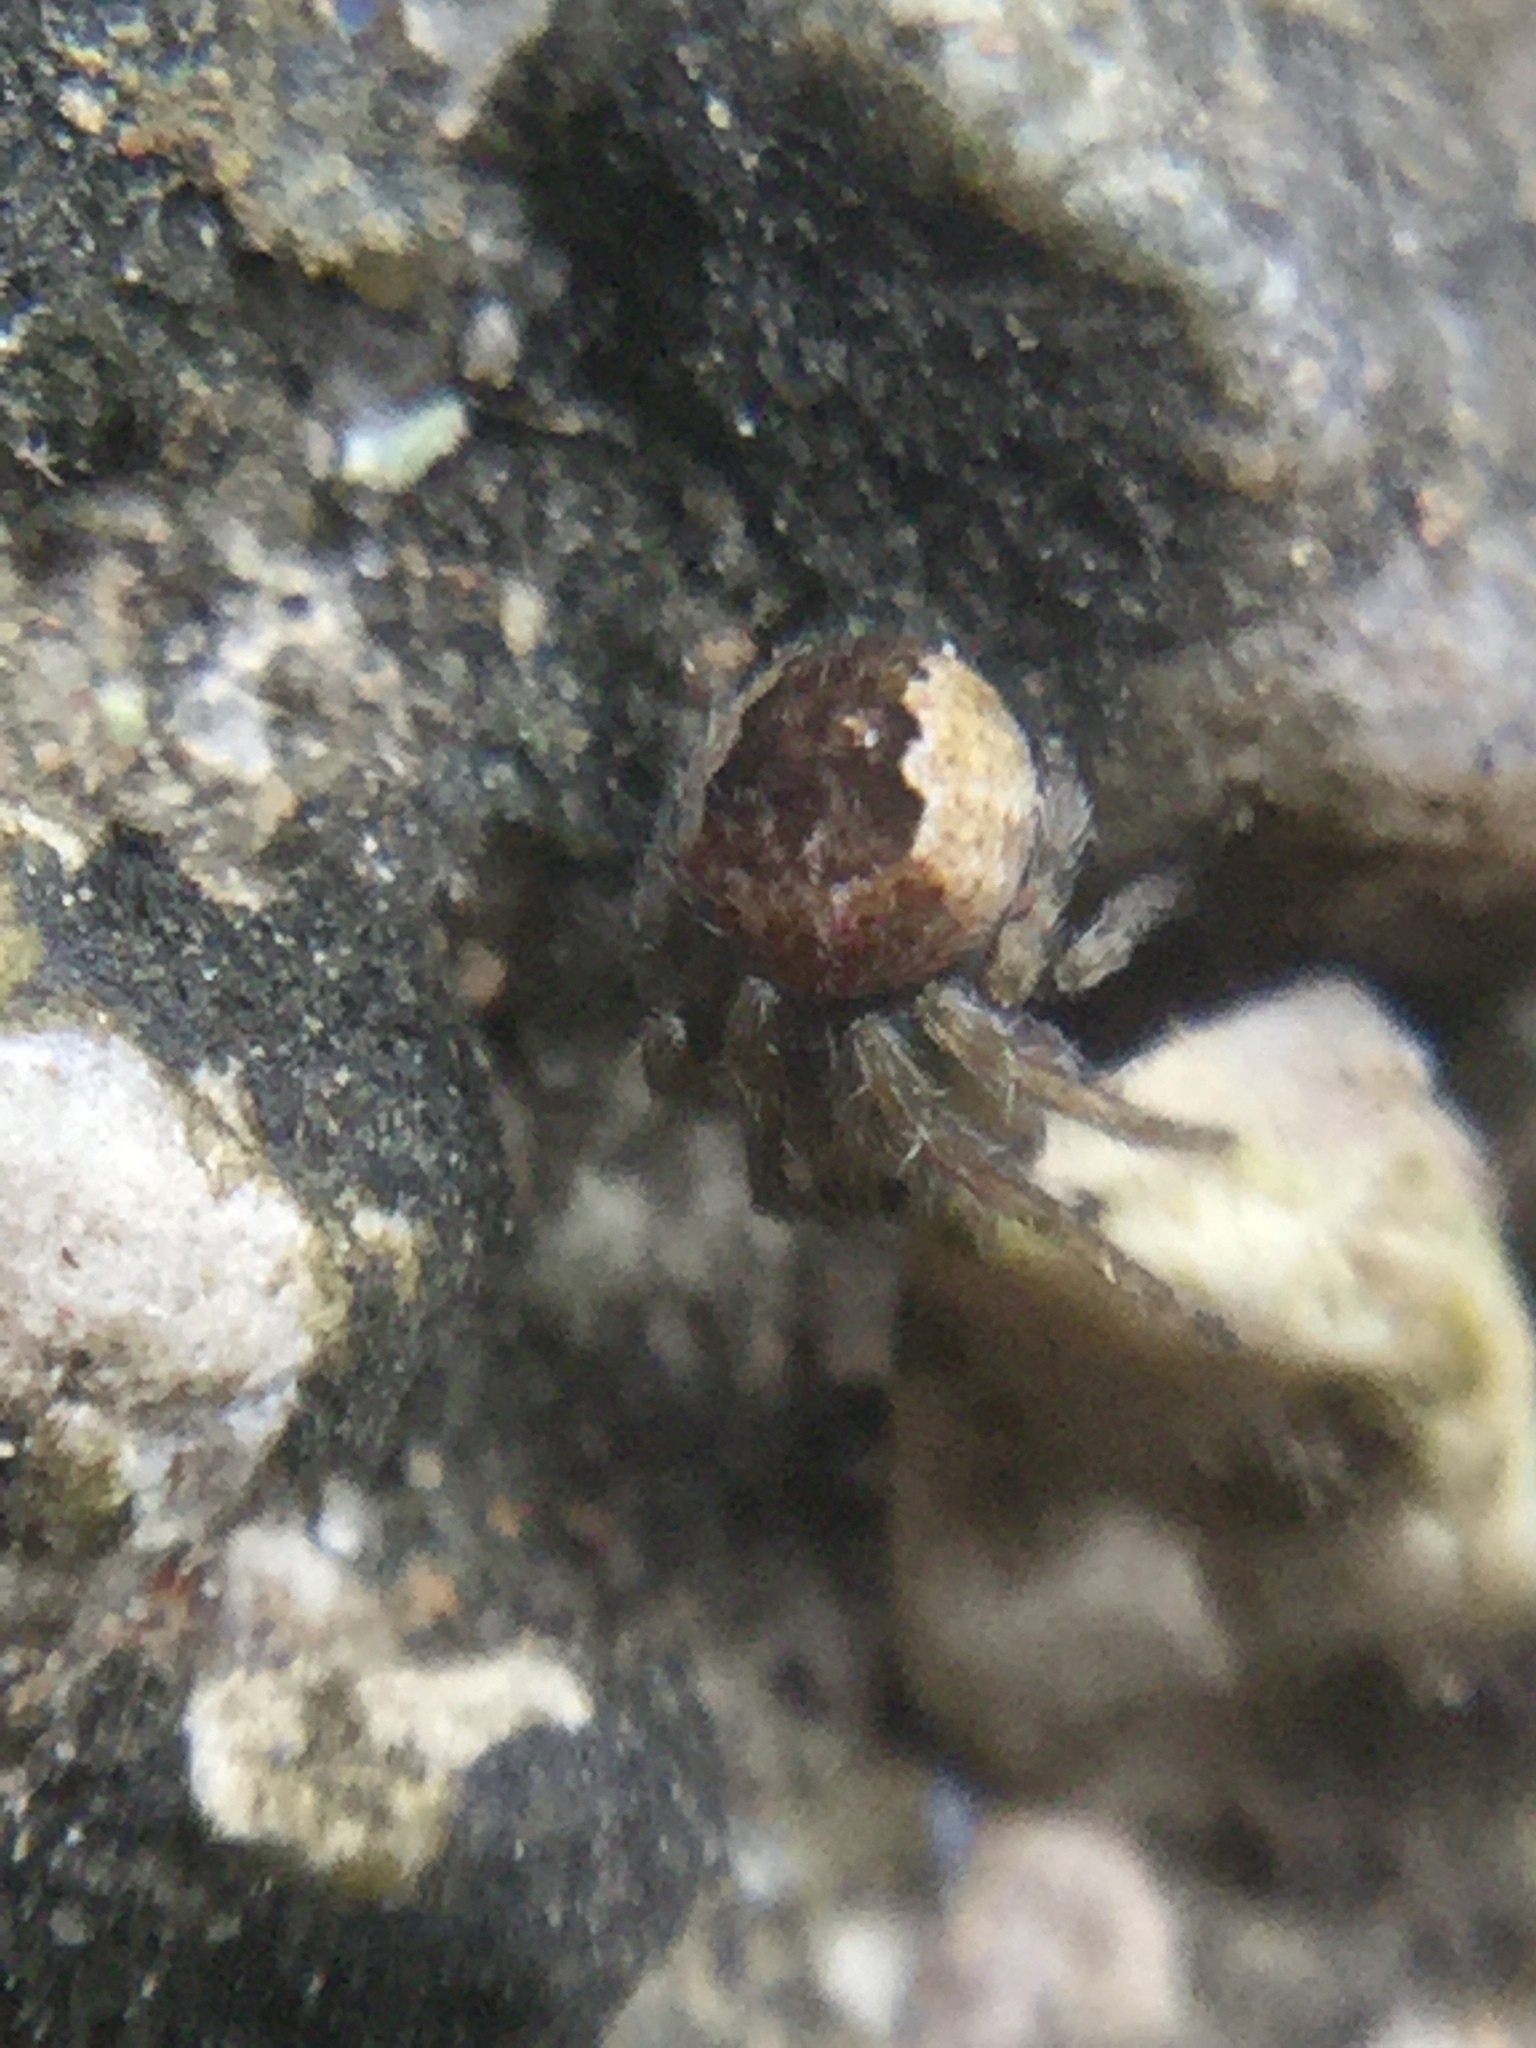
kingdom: Animalia
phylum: Arthropoda
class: Arachnida
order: Araneae
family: Araneidae
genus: Eustala
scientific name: Eustala
